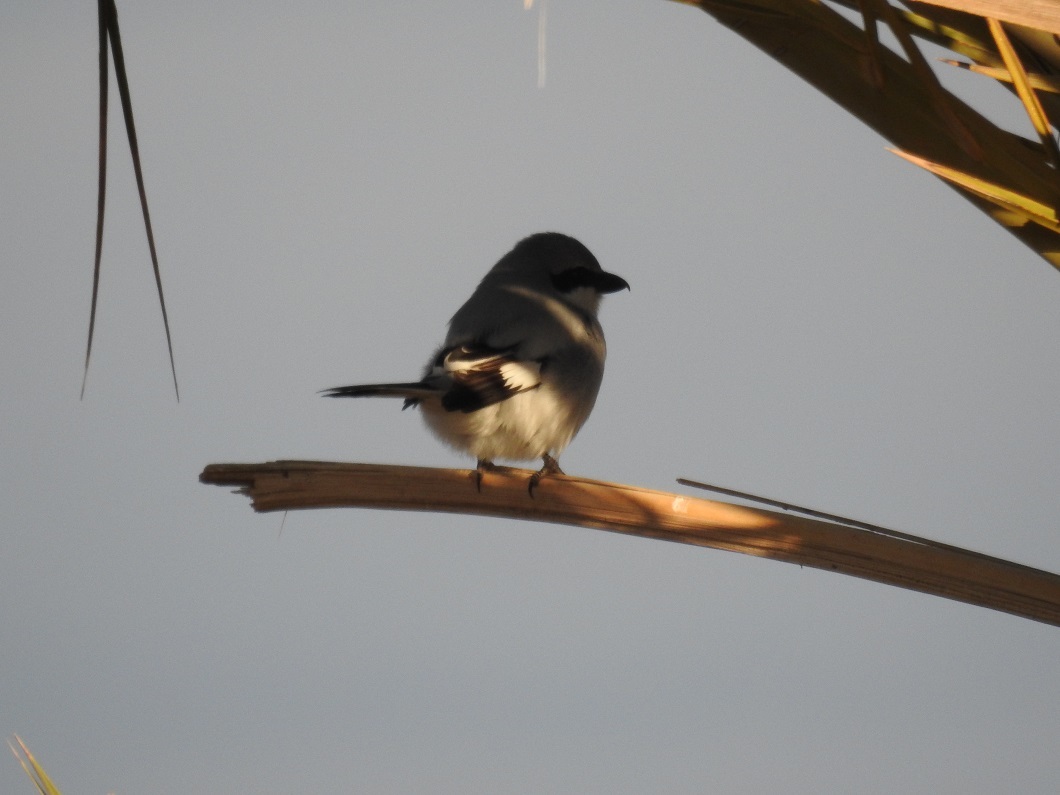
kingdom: Animalia
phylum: Chordata
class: Aves
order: Passeriformes
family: Laniidae
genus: Lanius
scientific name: Lanius excubitor
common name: Great grey shrike
